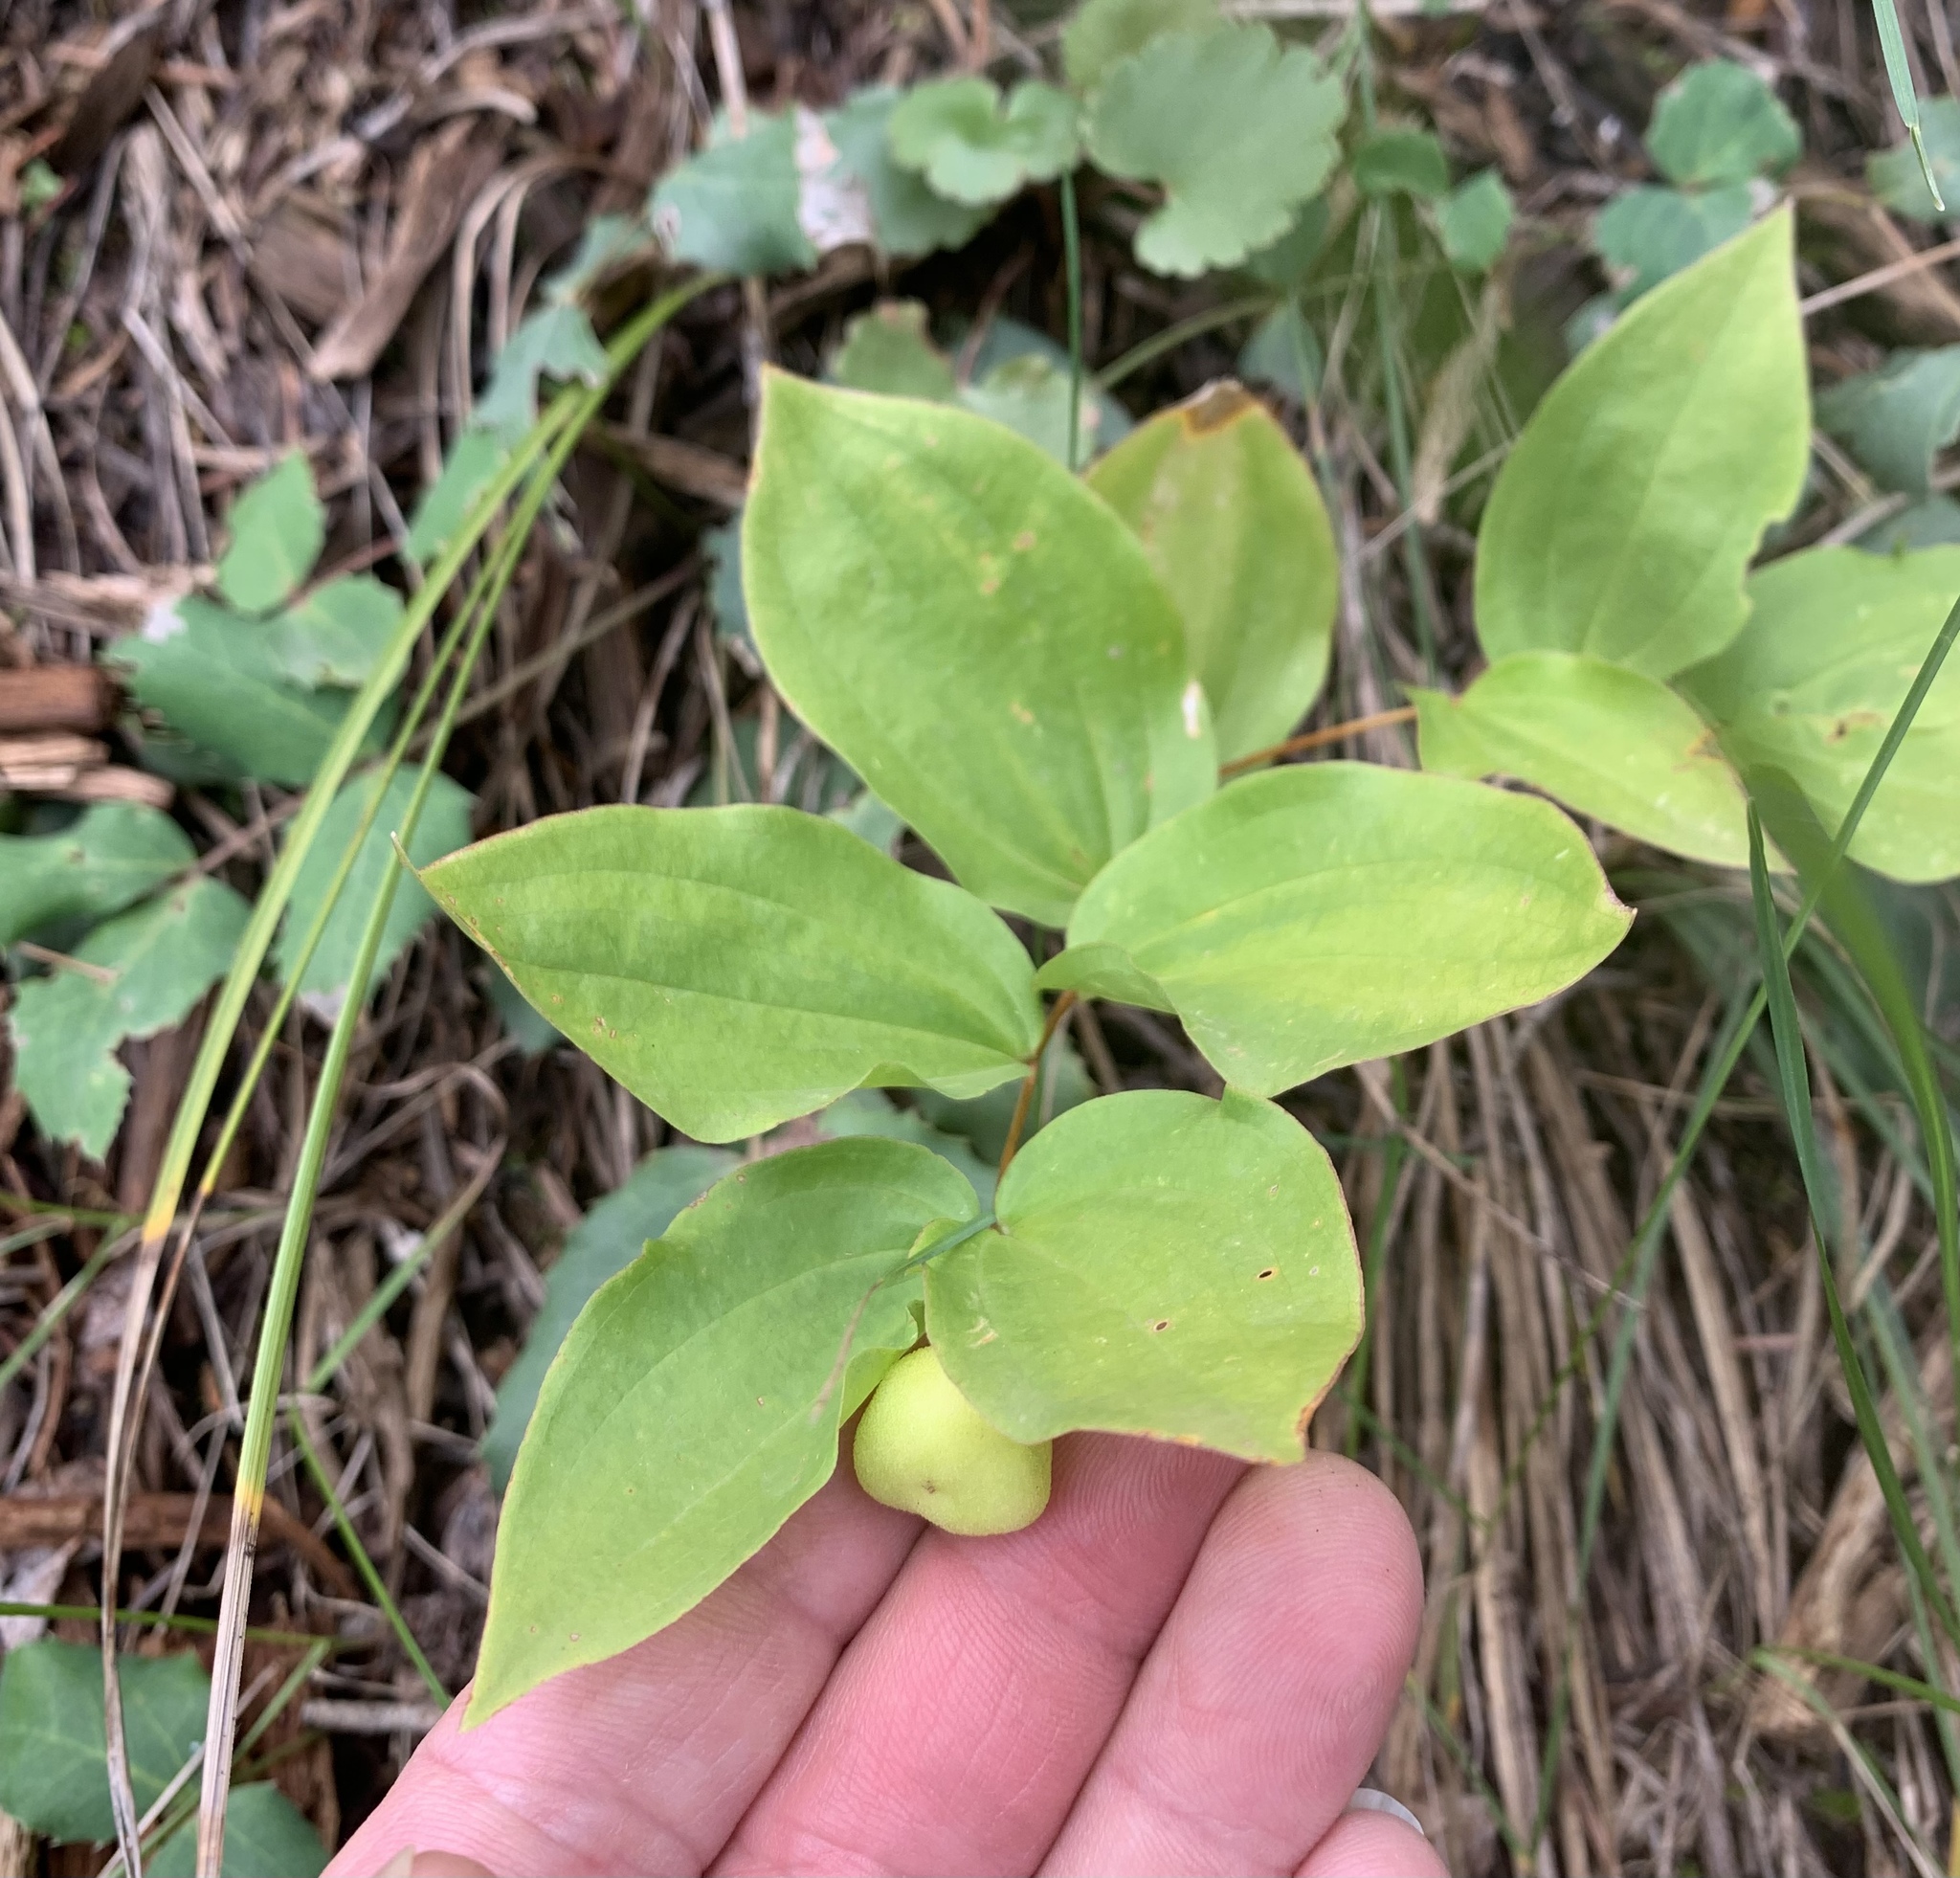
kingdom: Plantae
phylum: Tracheophyta
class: Liliopsida
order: Liliales
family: Liliaceae
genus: Prosartes
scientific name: Prosartes trachycarpa
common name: Rough-fruit fairy-bells
